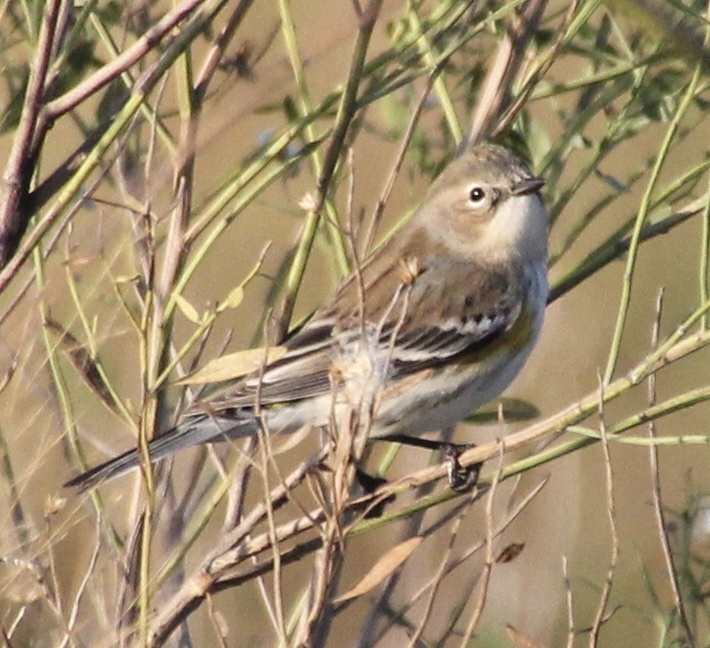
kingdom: Animalia
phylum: Chordata
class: Aves
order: Passeriformes
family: Parulidae
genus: Setophaga
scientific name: Setophaga coronata
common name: Myrtle warbler
